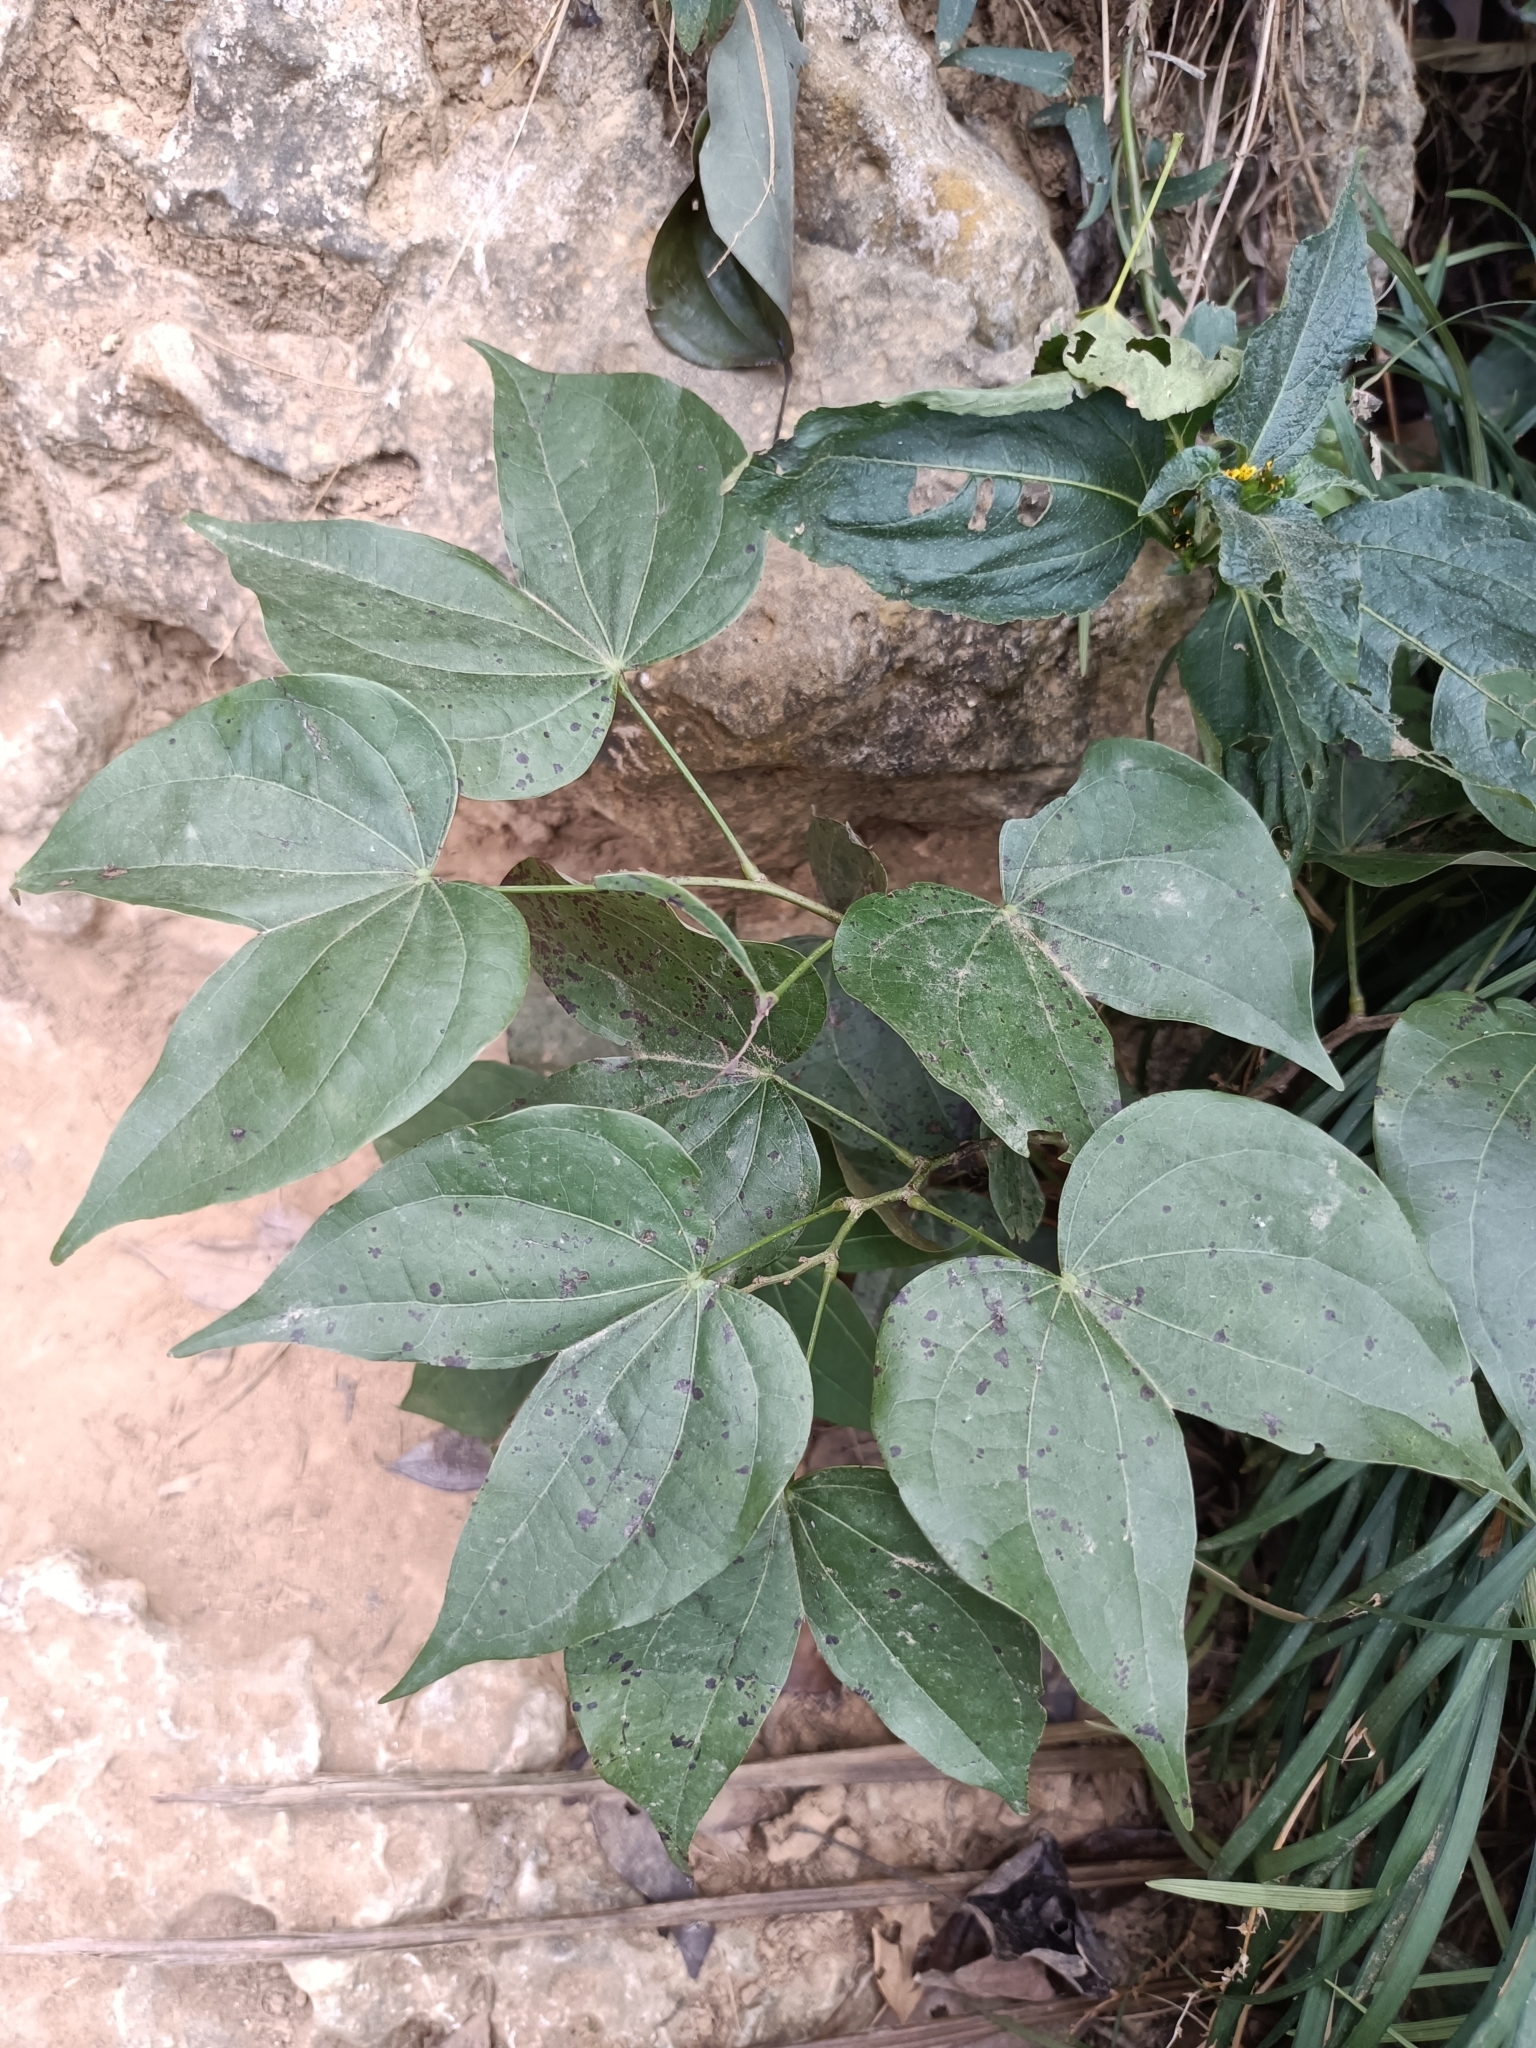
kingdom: Plantae
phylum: Tracheophyta
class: Magnoliopsida
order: Fabales
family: Fabaceae
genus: Phanera
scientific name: Phanera championii
